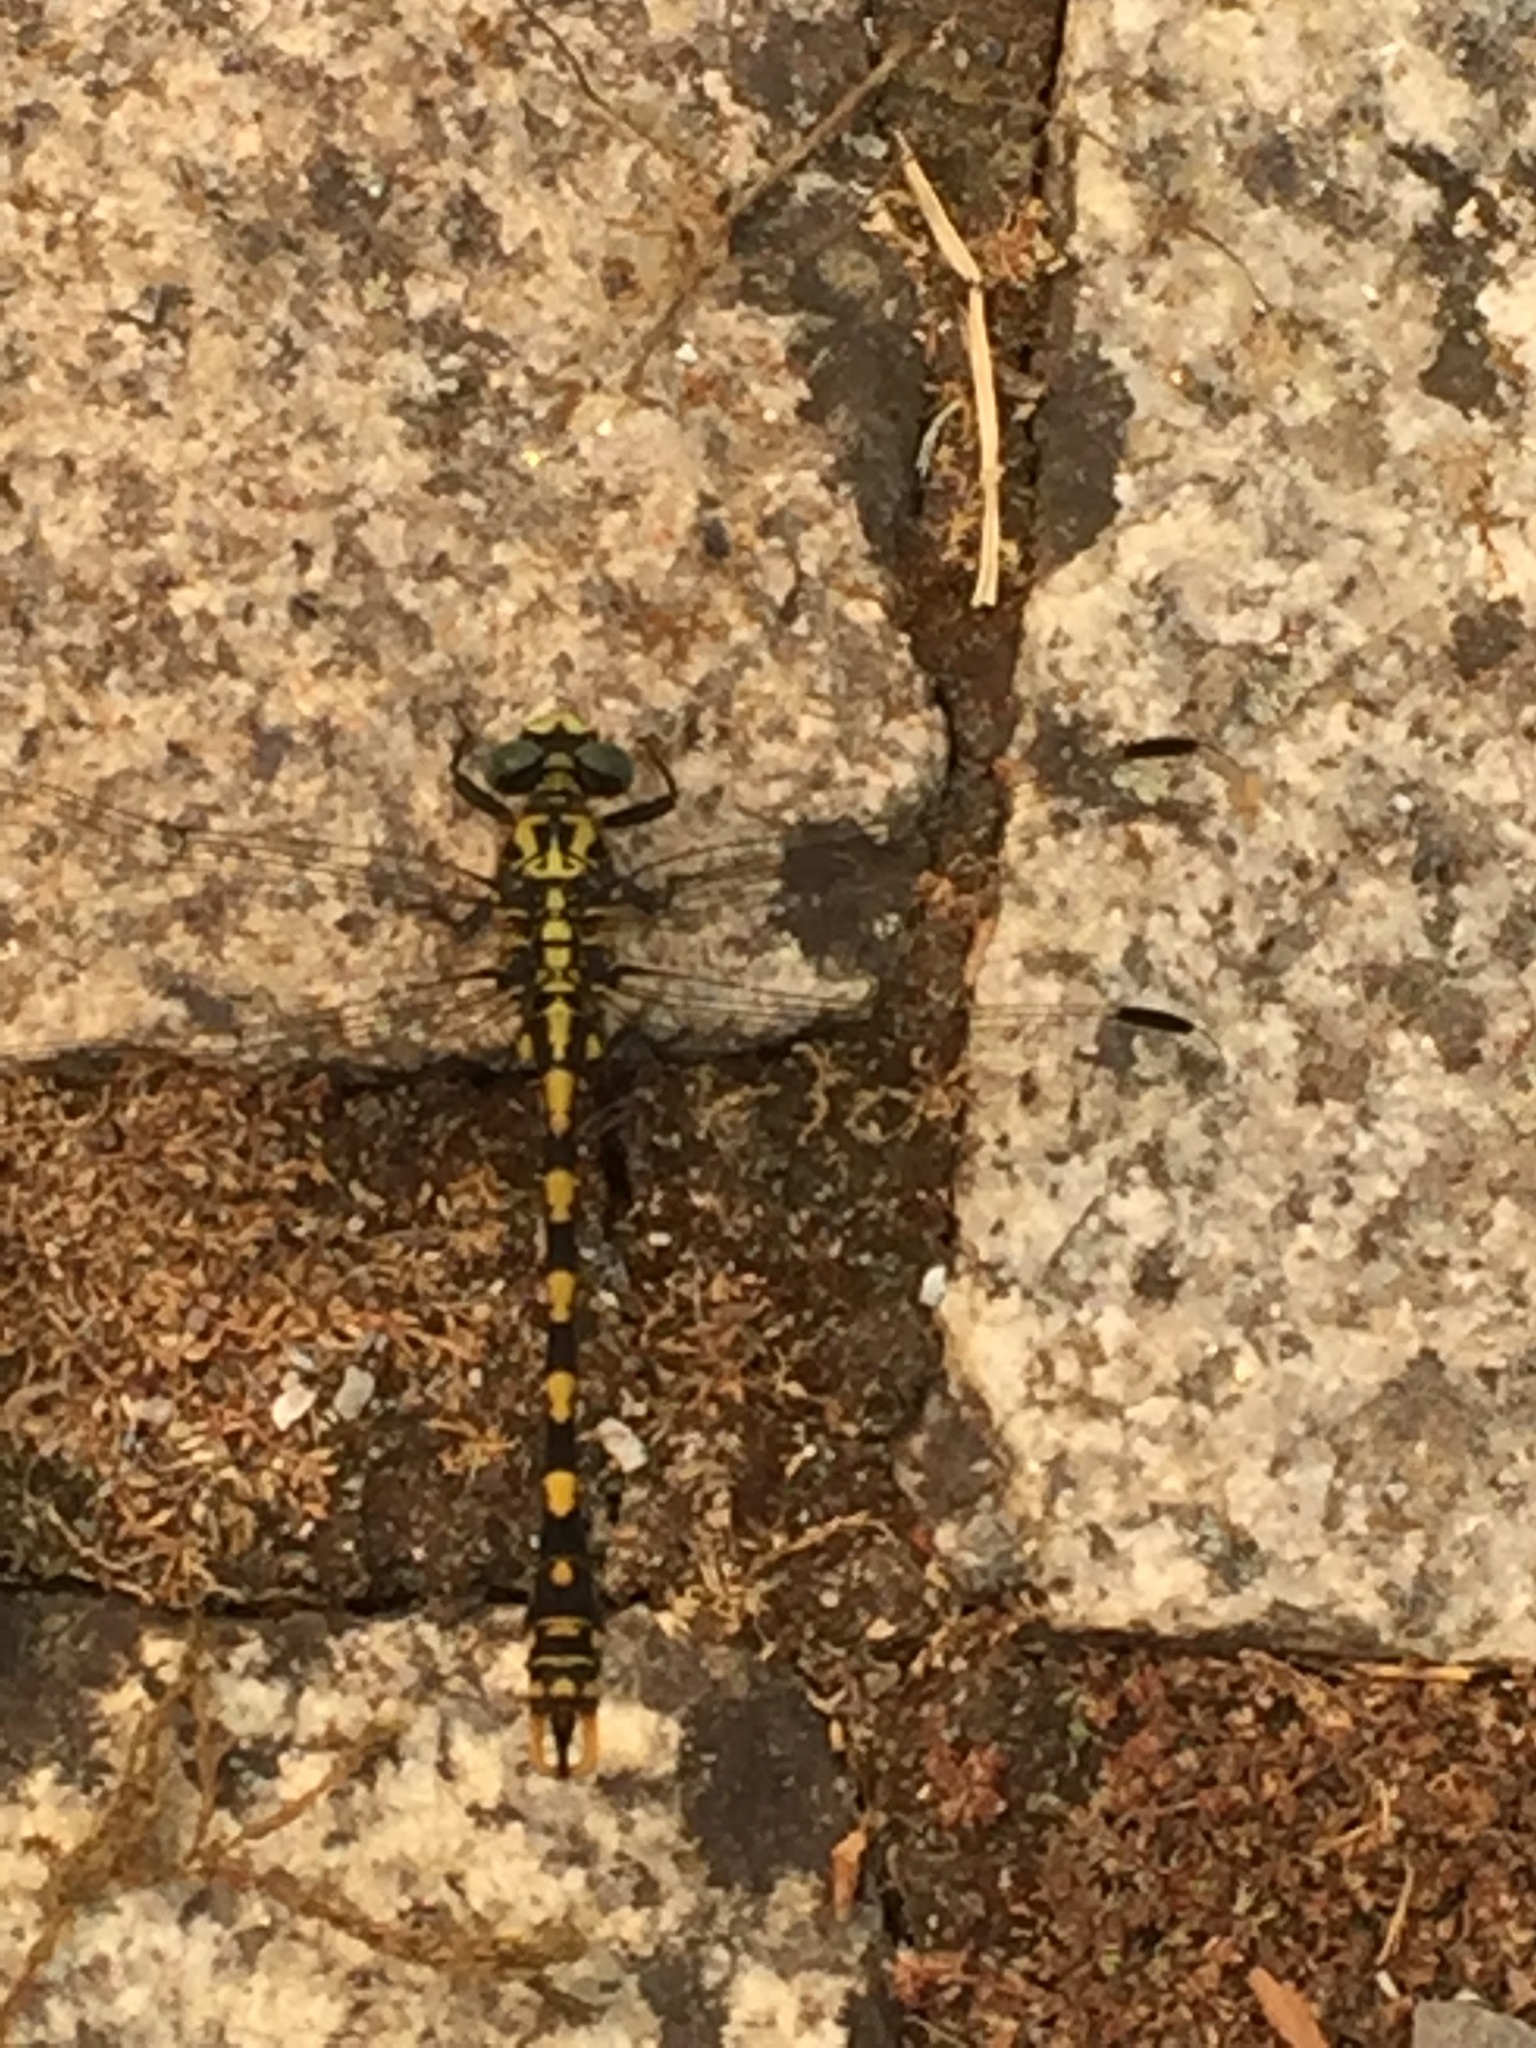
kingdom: Animalia
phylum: Arthropoda
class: Insecta
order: Odonata
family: Gomphidae
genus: Onychogomphus
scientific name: Onychogomphus uncatus
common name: Large pincertail
